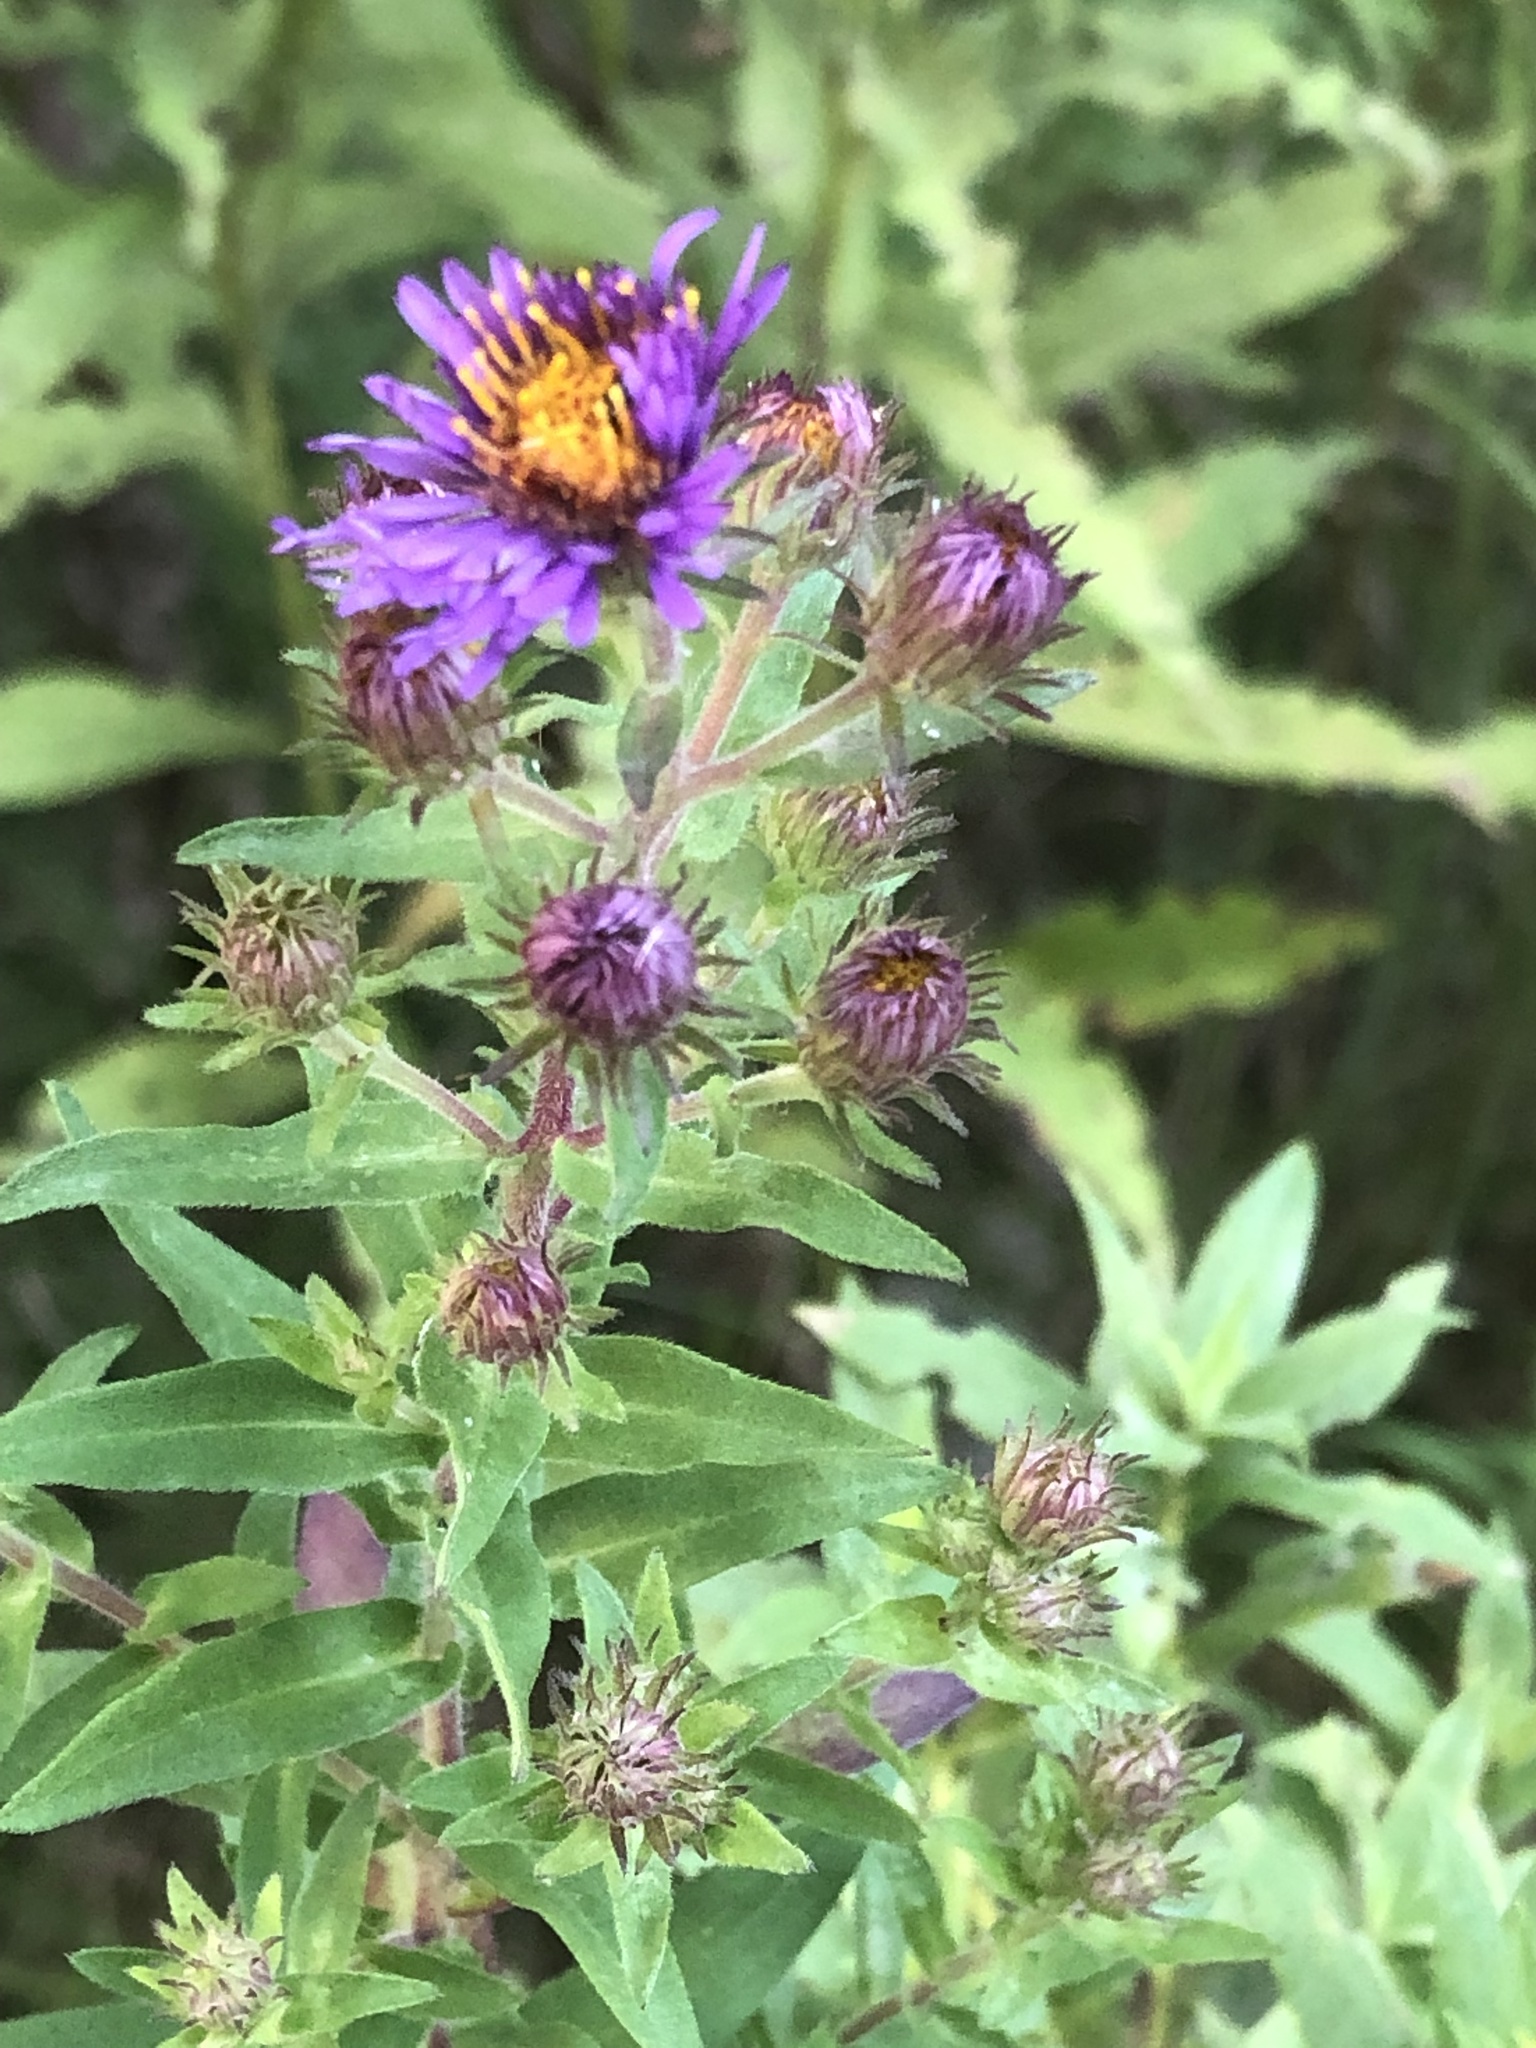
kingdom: Plantae
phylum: Tracheophyta
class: Magnoliopsida
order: Asterales
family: Asteraceae
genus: Symphyotrichum
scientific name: Symphyotrichum novae-angliae
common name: Michaelmas daisy
